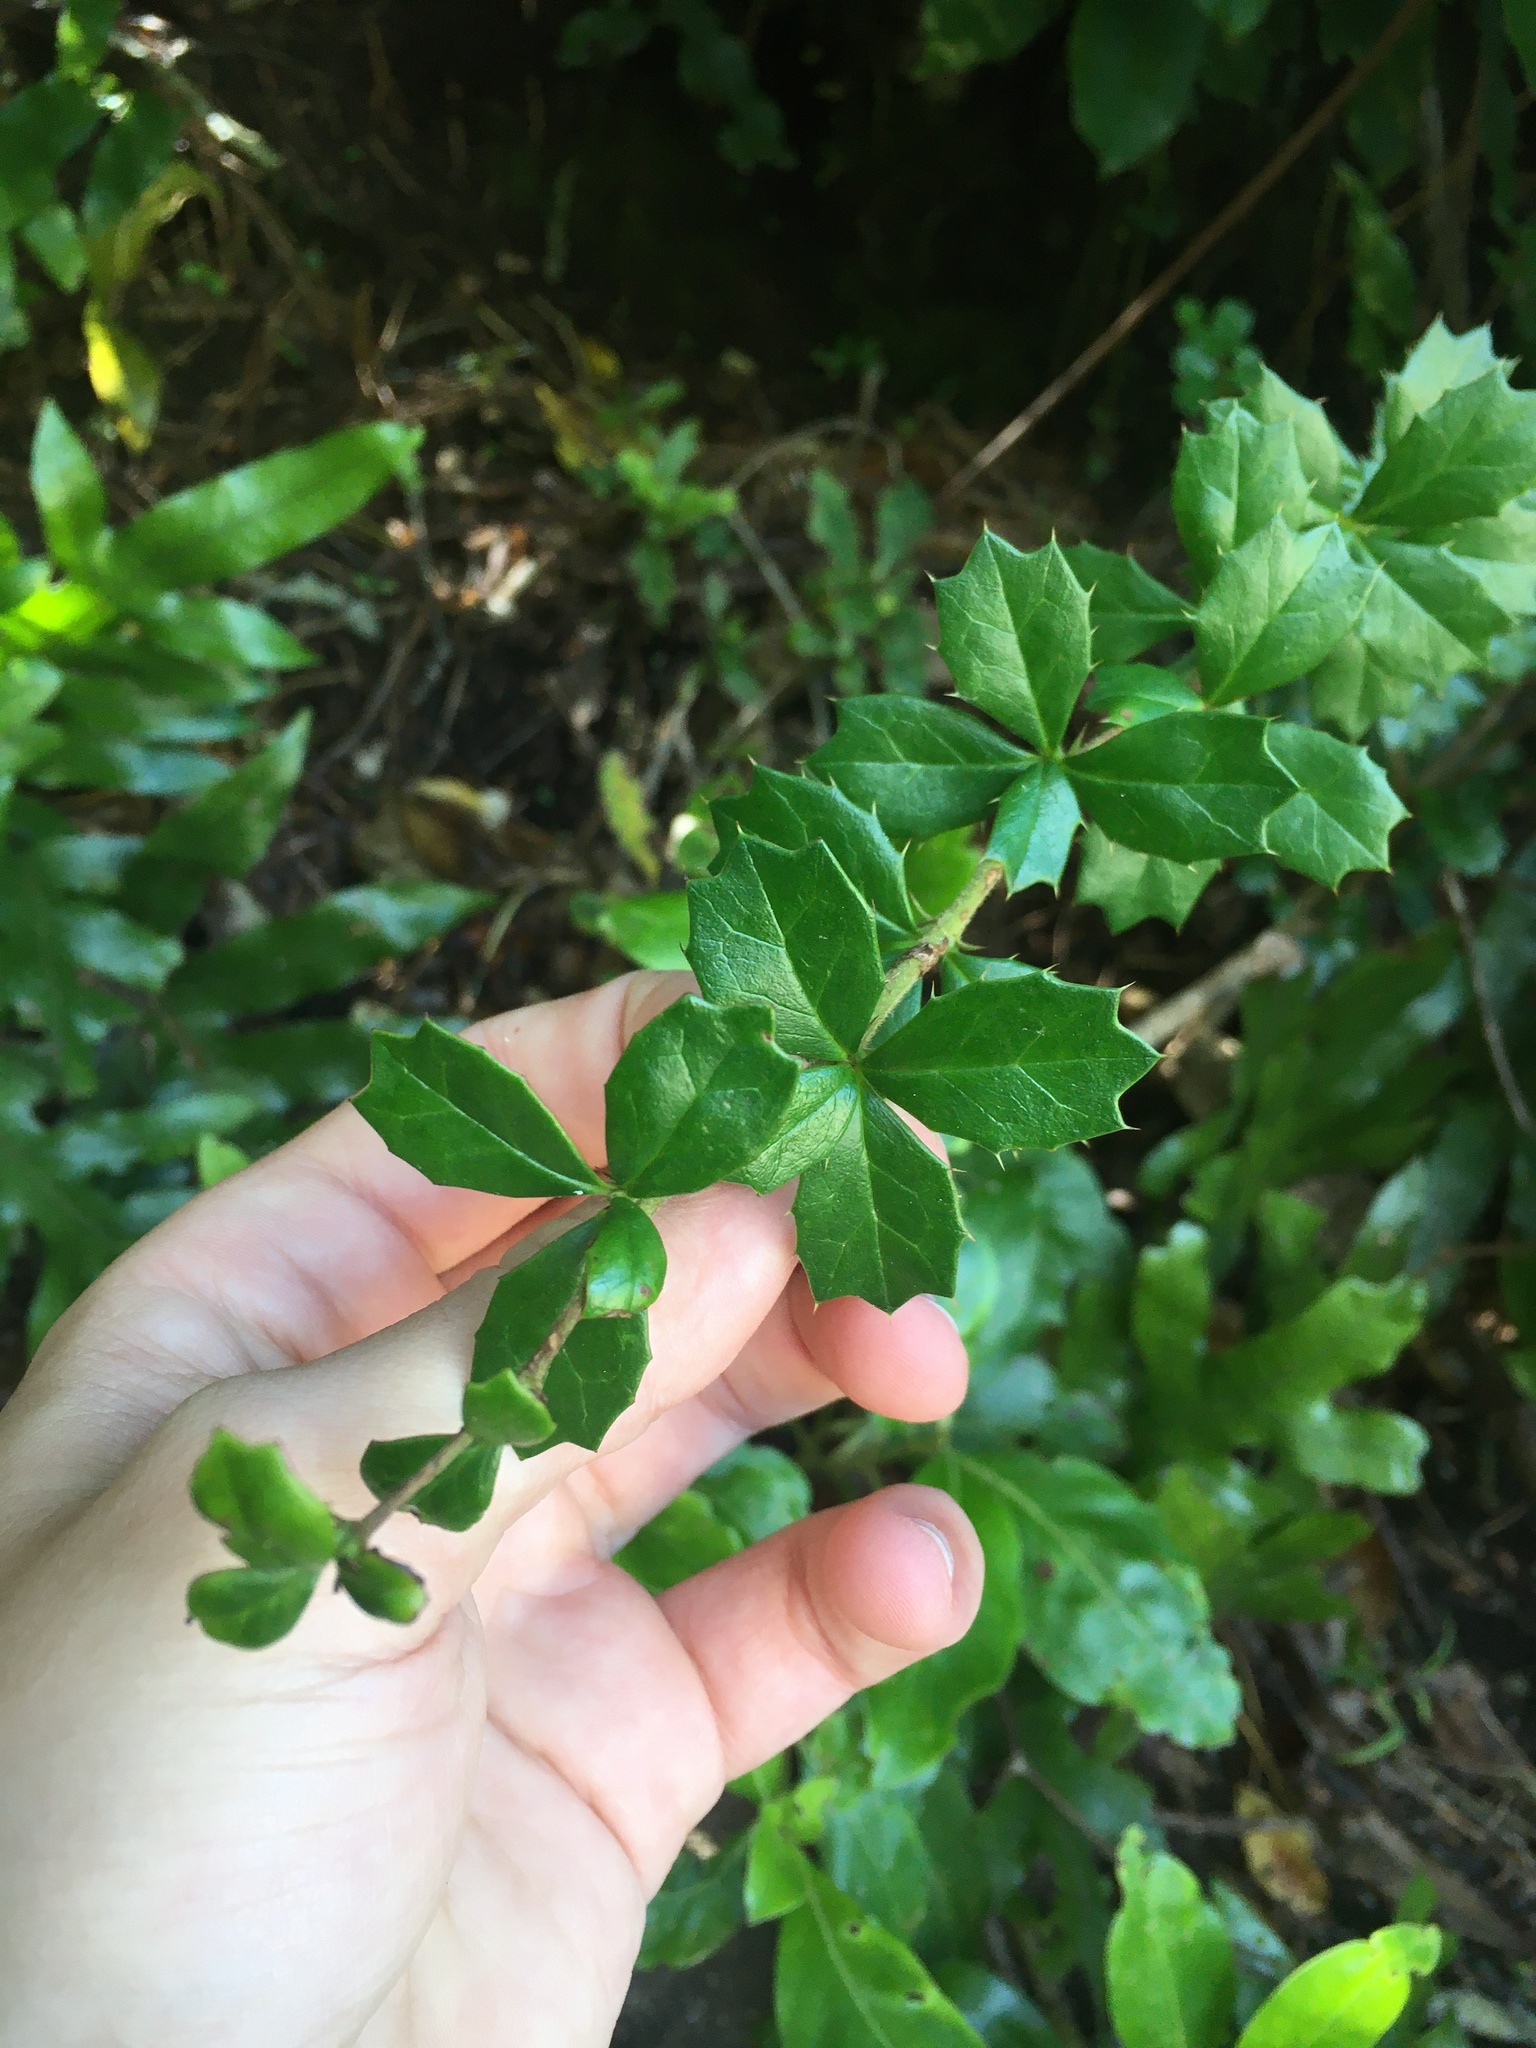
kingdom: Plantae
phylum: Tracheophyta
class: Magnoliopsida
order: Ranunculales
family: Berberidaceae
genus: Berberis
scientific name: Berberis darwinii
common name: Darwin's barberry
